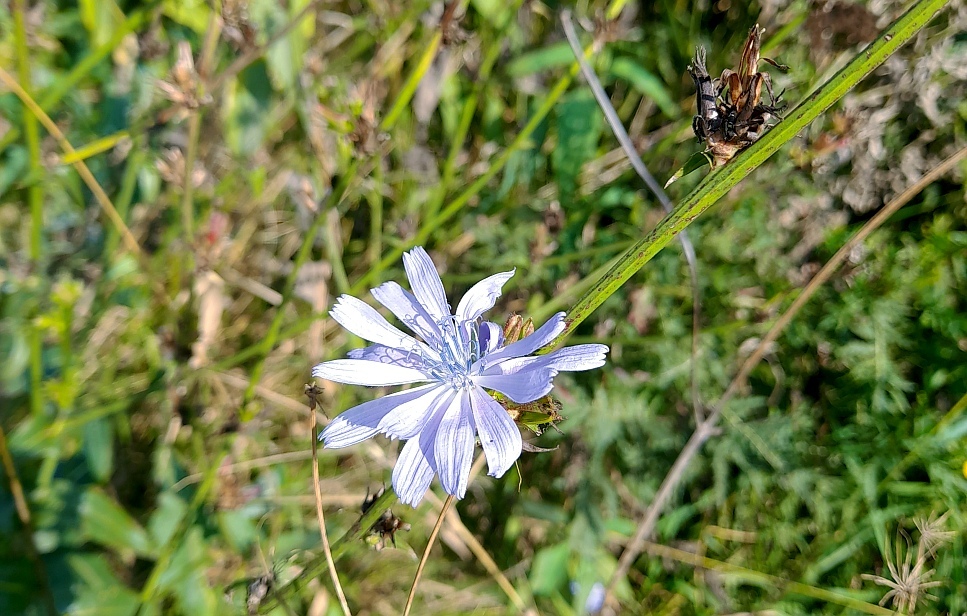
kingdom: Plantae
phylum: Tracheophyta
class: Magnoliopsida
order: Asterales
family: Asteraceae
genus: Cichorium
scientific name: Cichorium intybus
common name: Chicory
